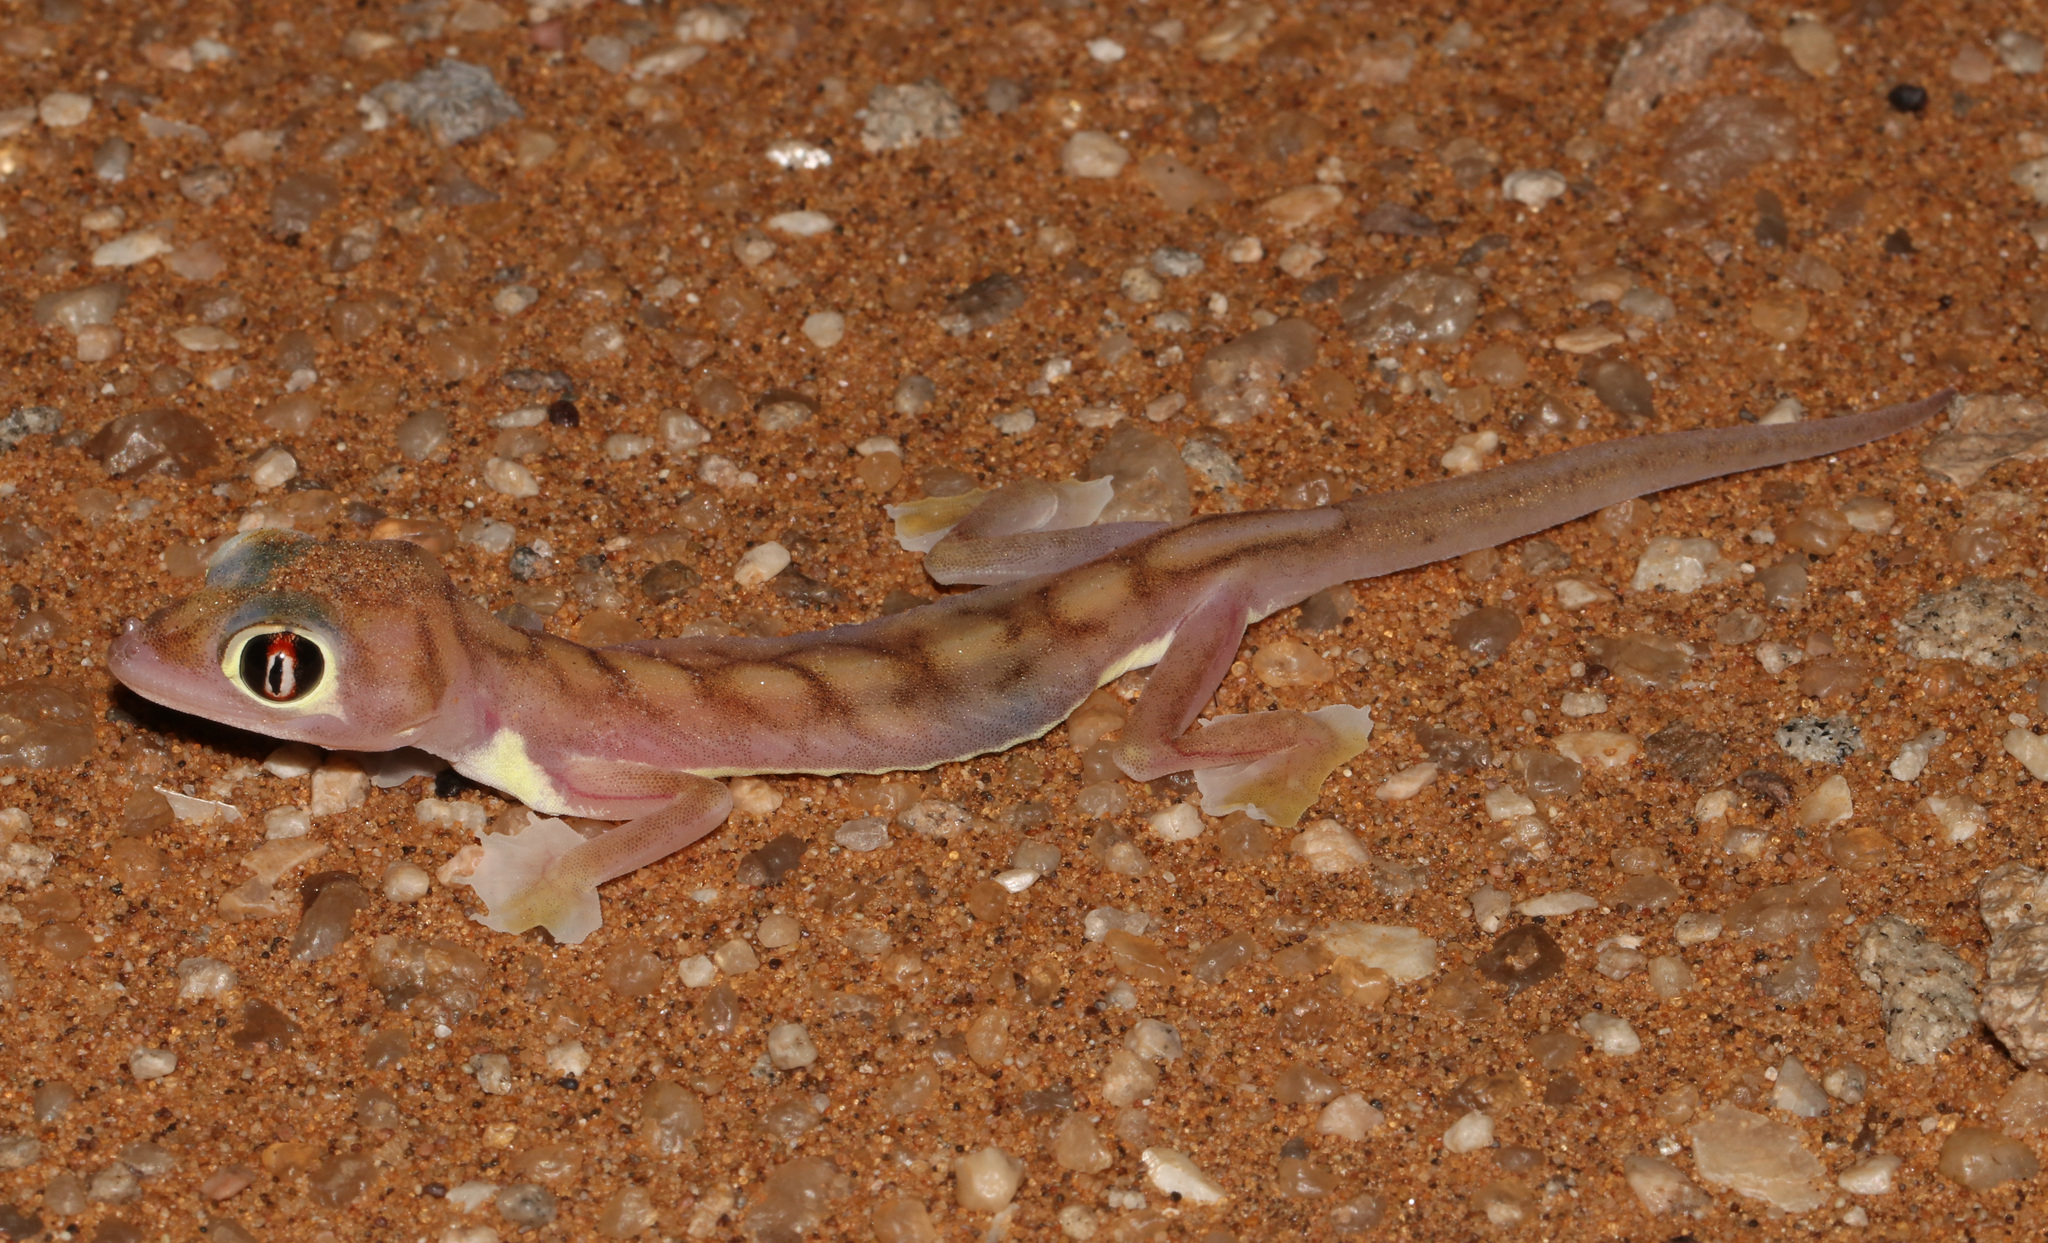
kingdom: Animalia
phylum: Chordata
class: Squamata
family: Gekkonidae
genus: Pachydactylus
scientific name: Pachydactylus rangei
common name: Namib sand gecko
